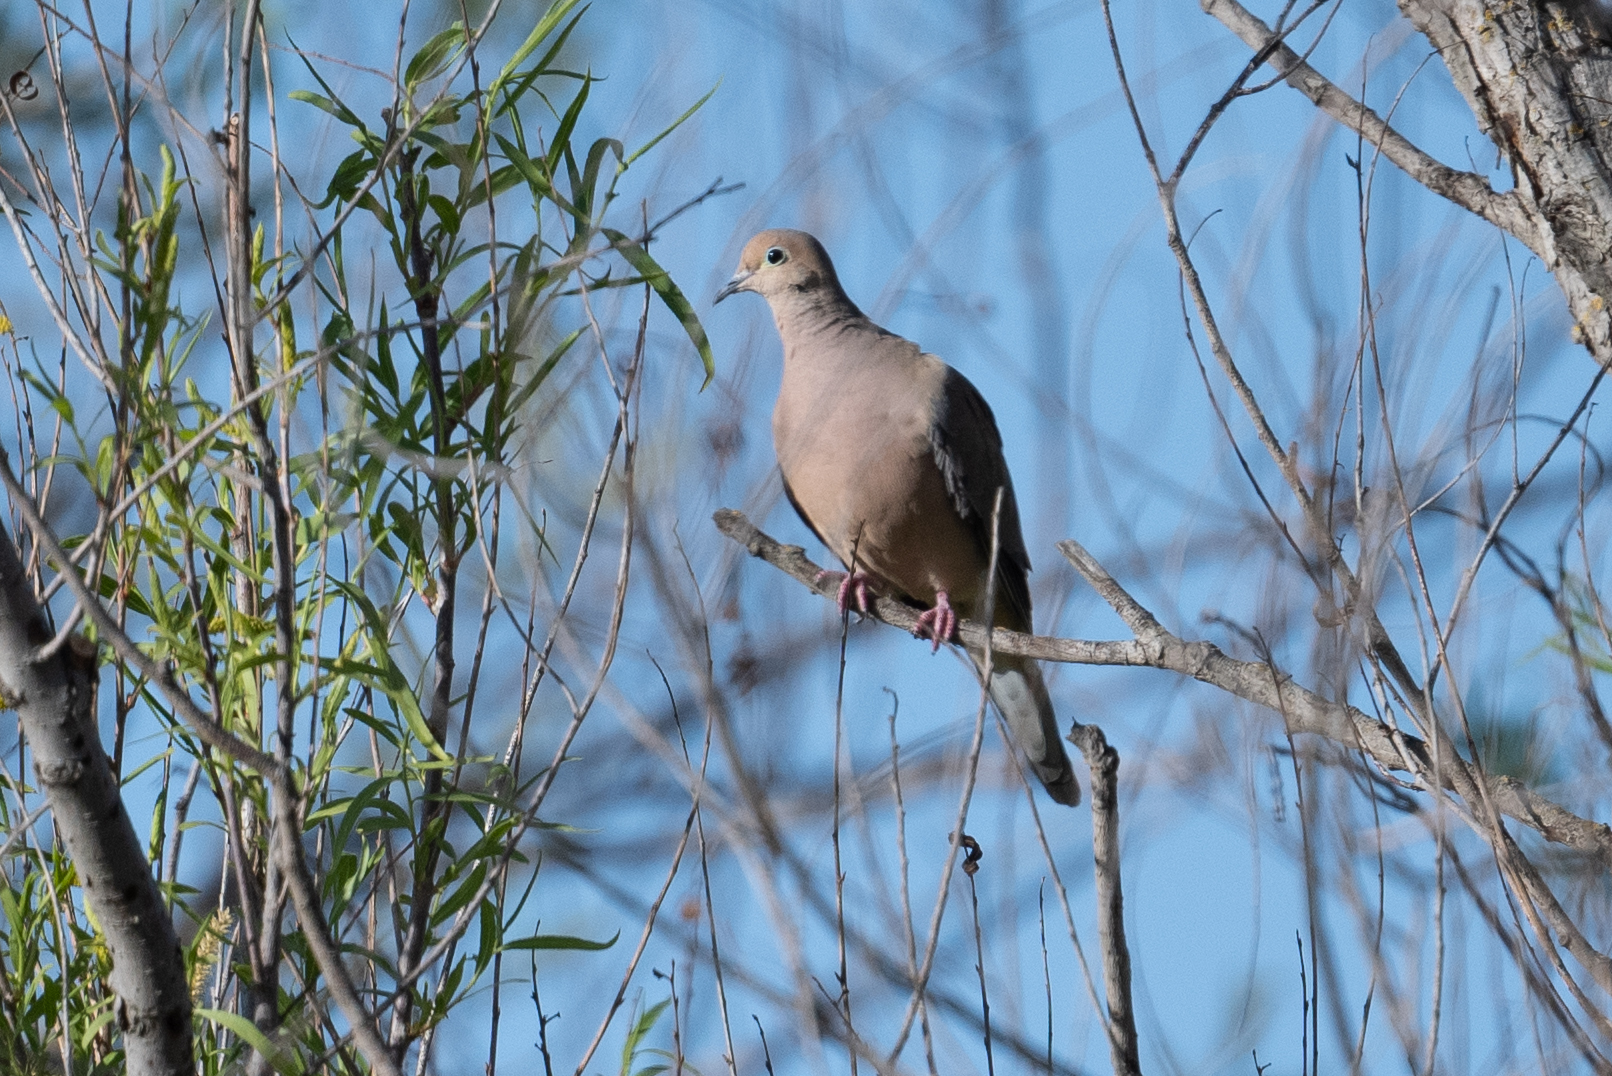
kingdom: Animalia
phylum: Chordata
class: Aves
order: Columbiformes
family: Columbidae
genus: Zenaida
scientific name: Zenaida macroura
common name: Mourning dove
